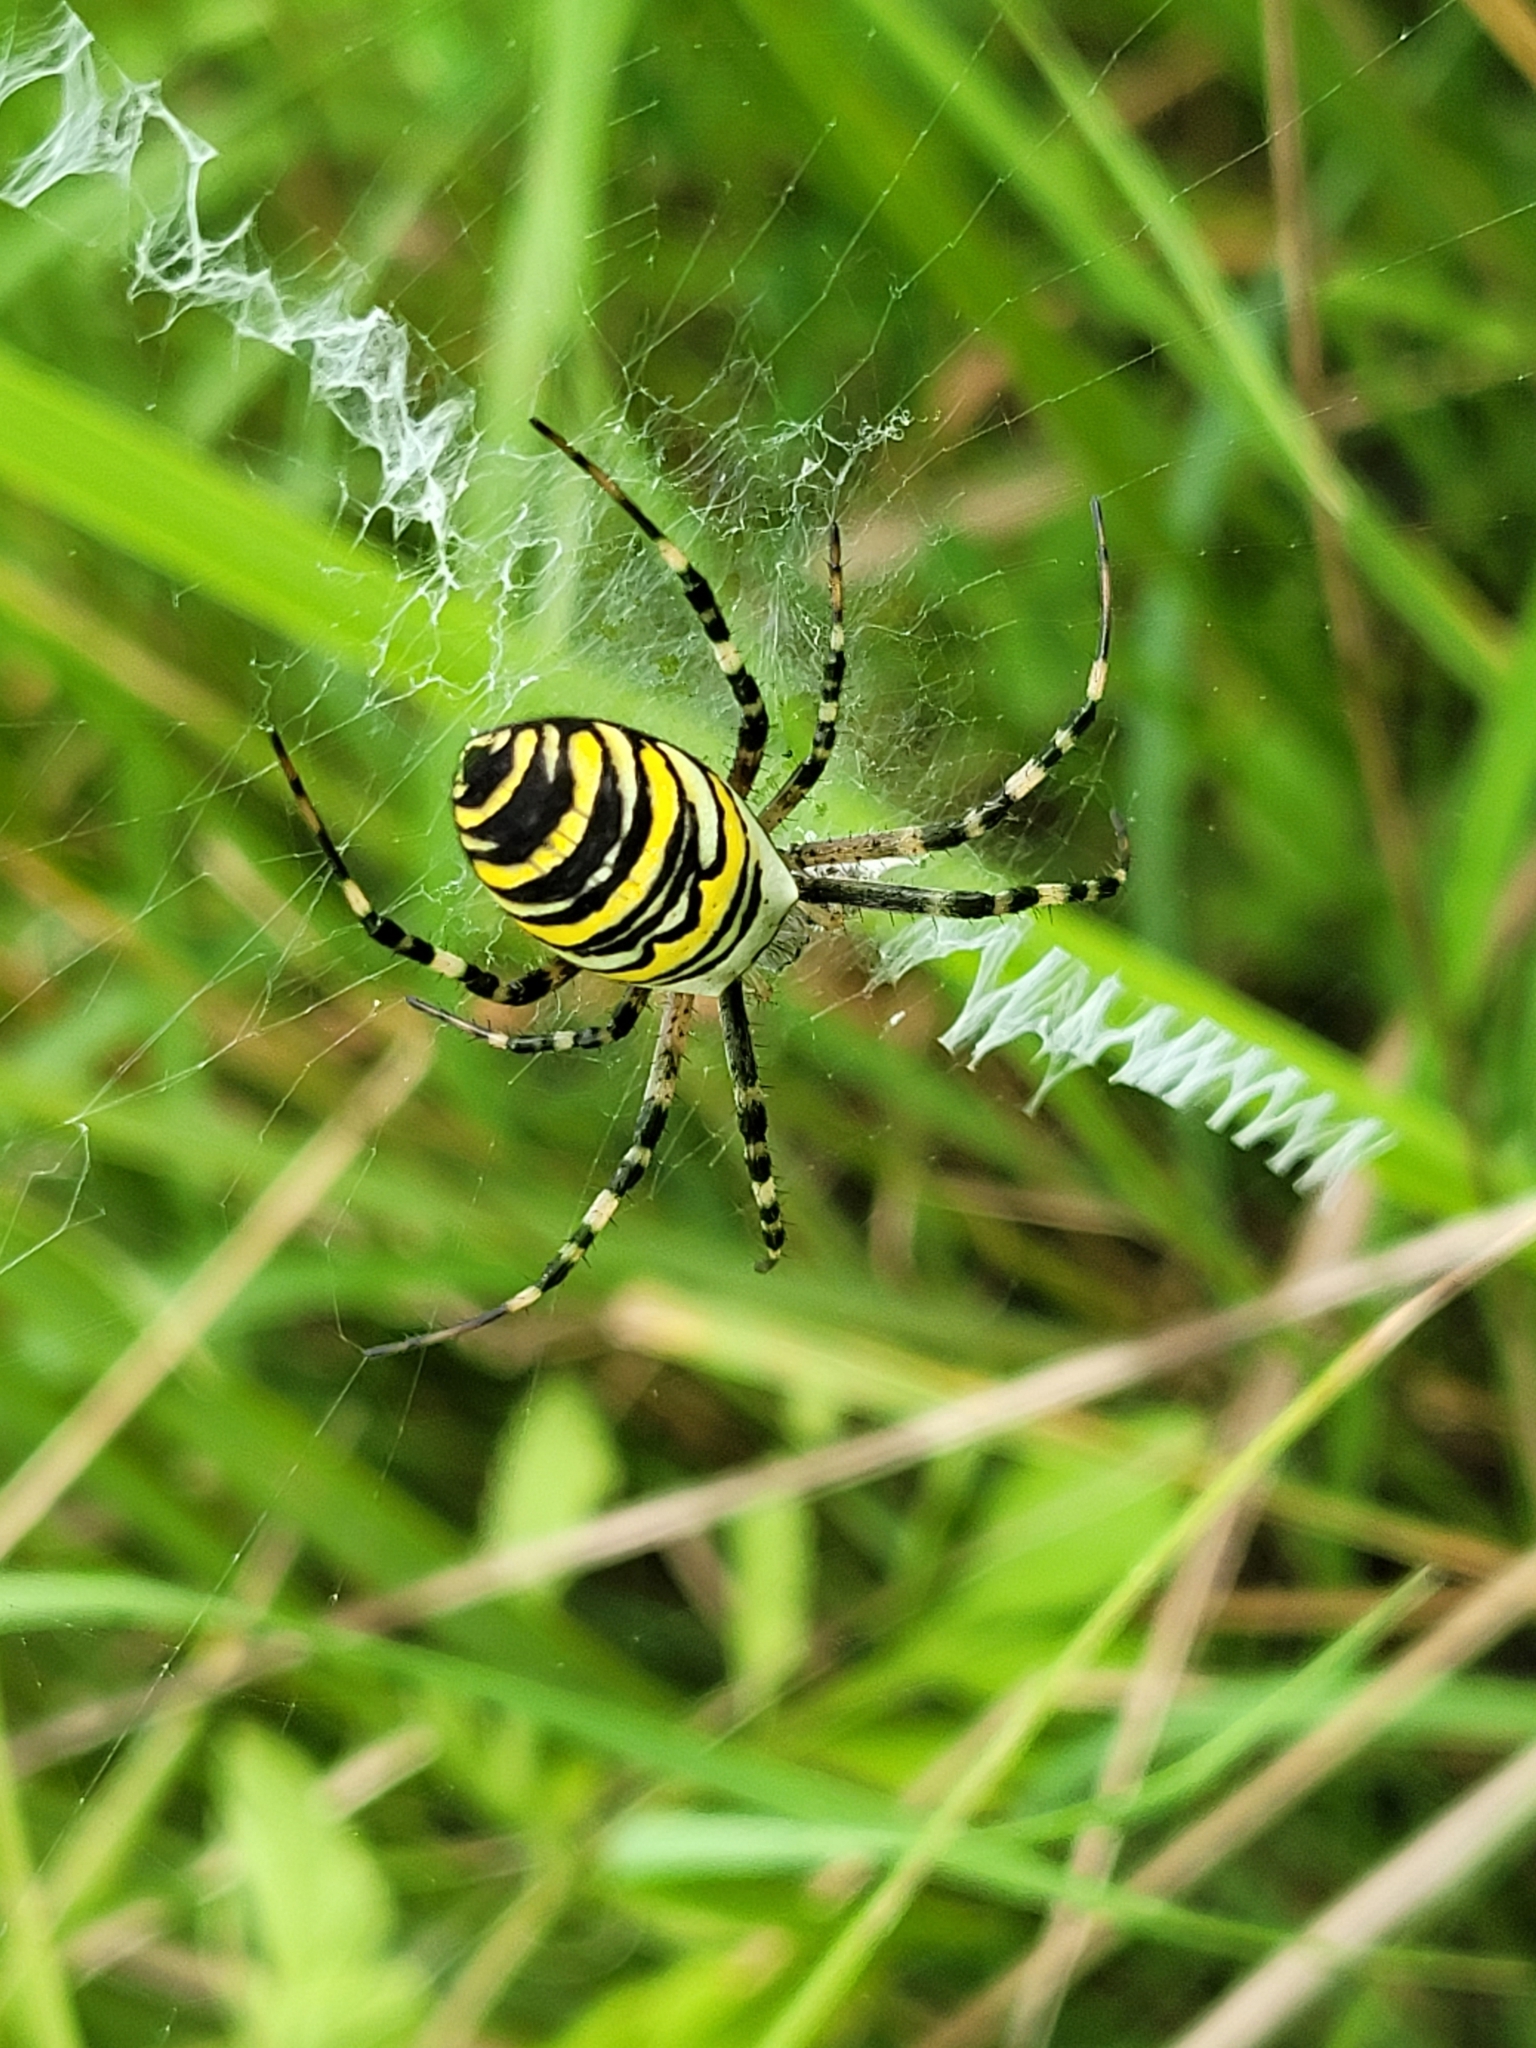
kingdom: Animalia
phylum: Arthropoda
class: Arachnida
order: Araneae
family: Araneidae
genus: Argiope
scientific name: Argiope bruennichi
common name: Wasp spider
